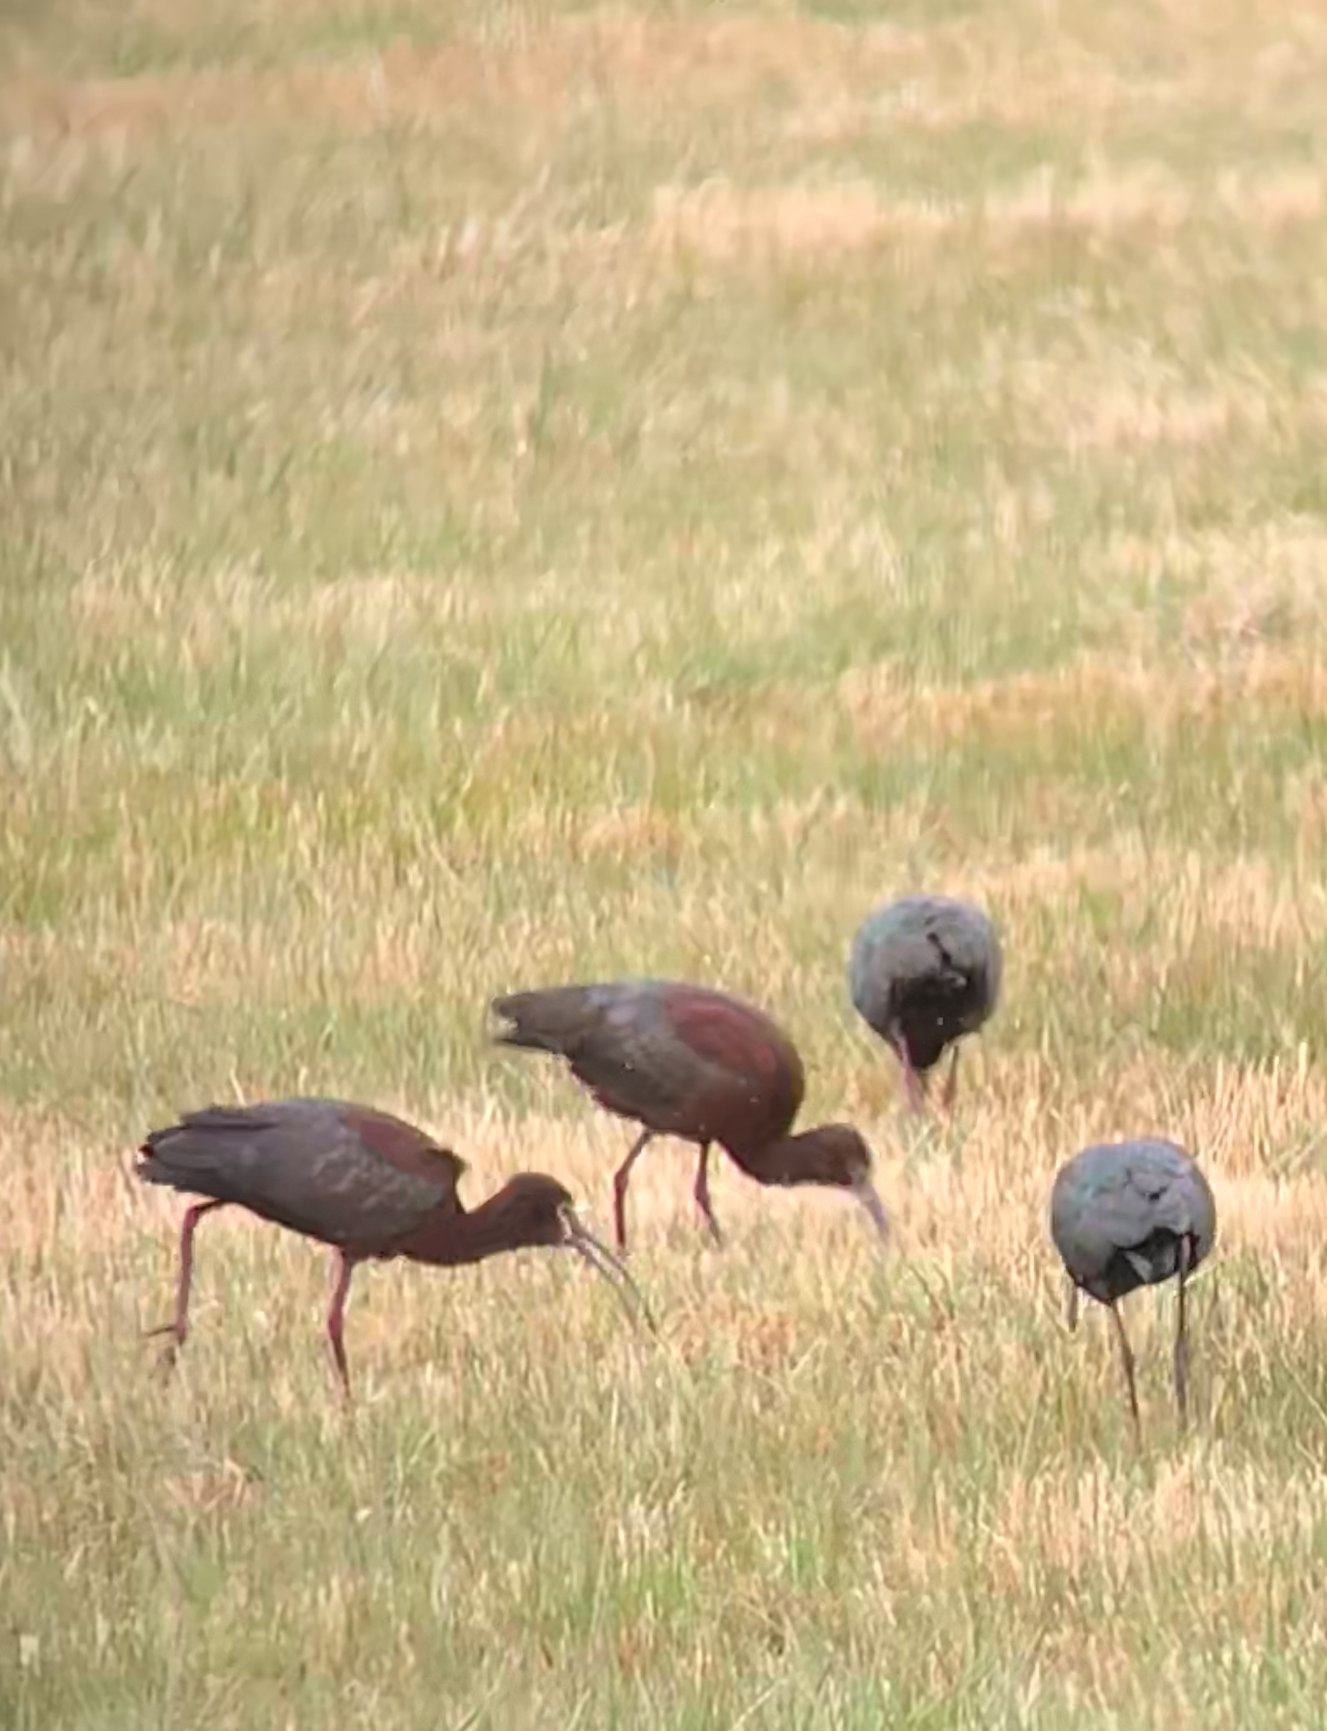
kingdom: Animalia
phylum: Chordata
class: Aves
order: Pelecaniformes
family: Threskiornithidae
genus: Plegadis
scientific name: Plegadis chihi
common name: White-faced ibis
